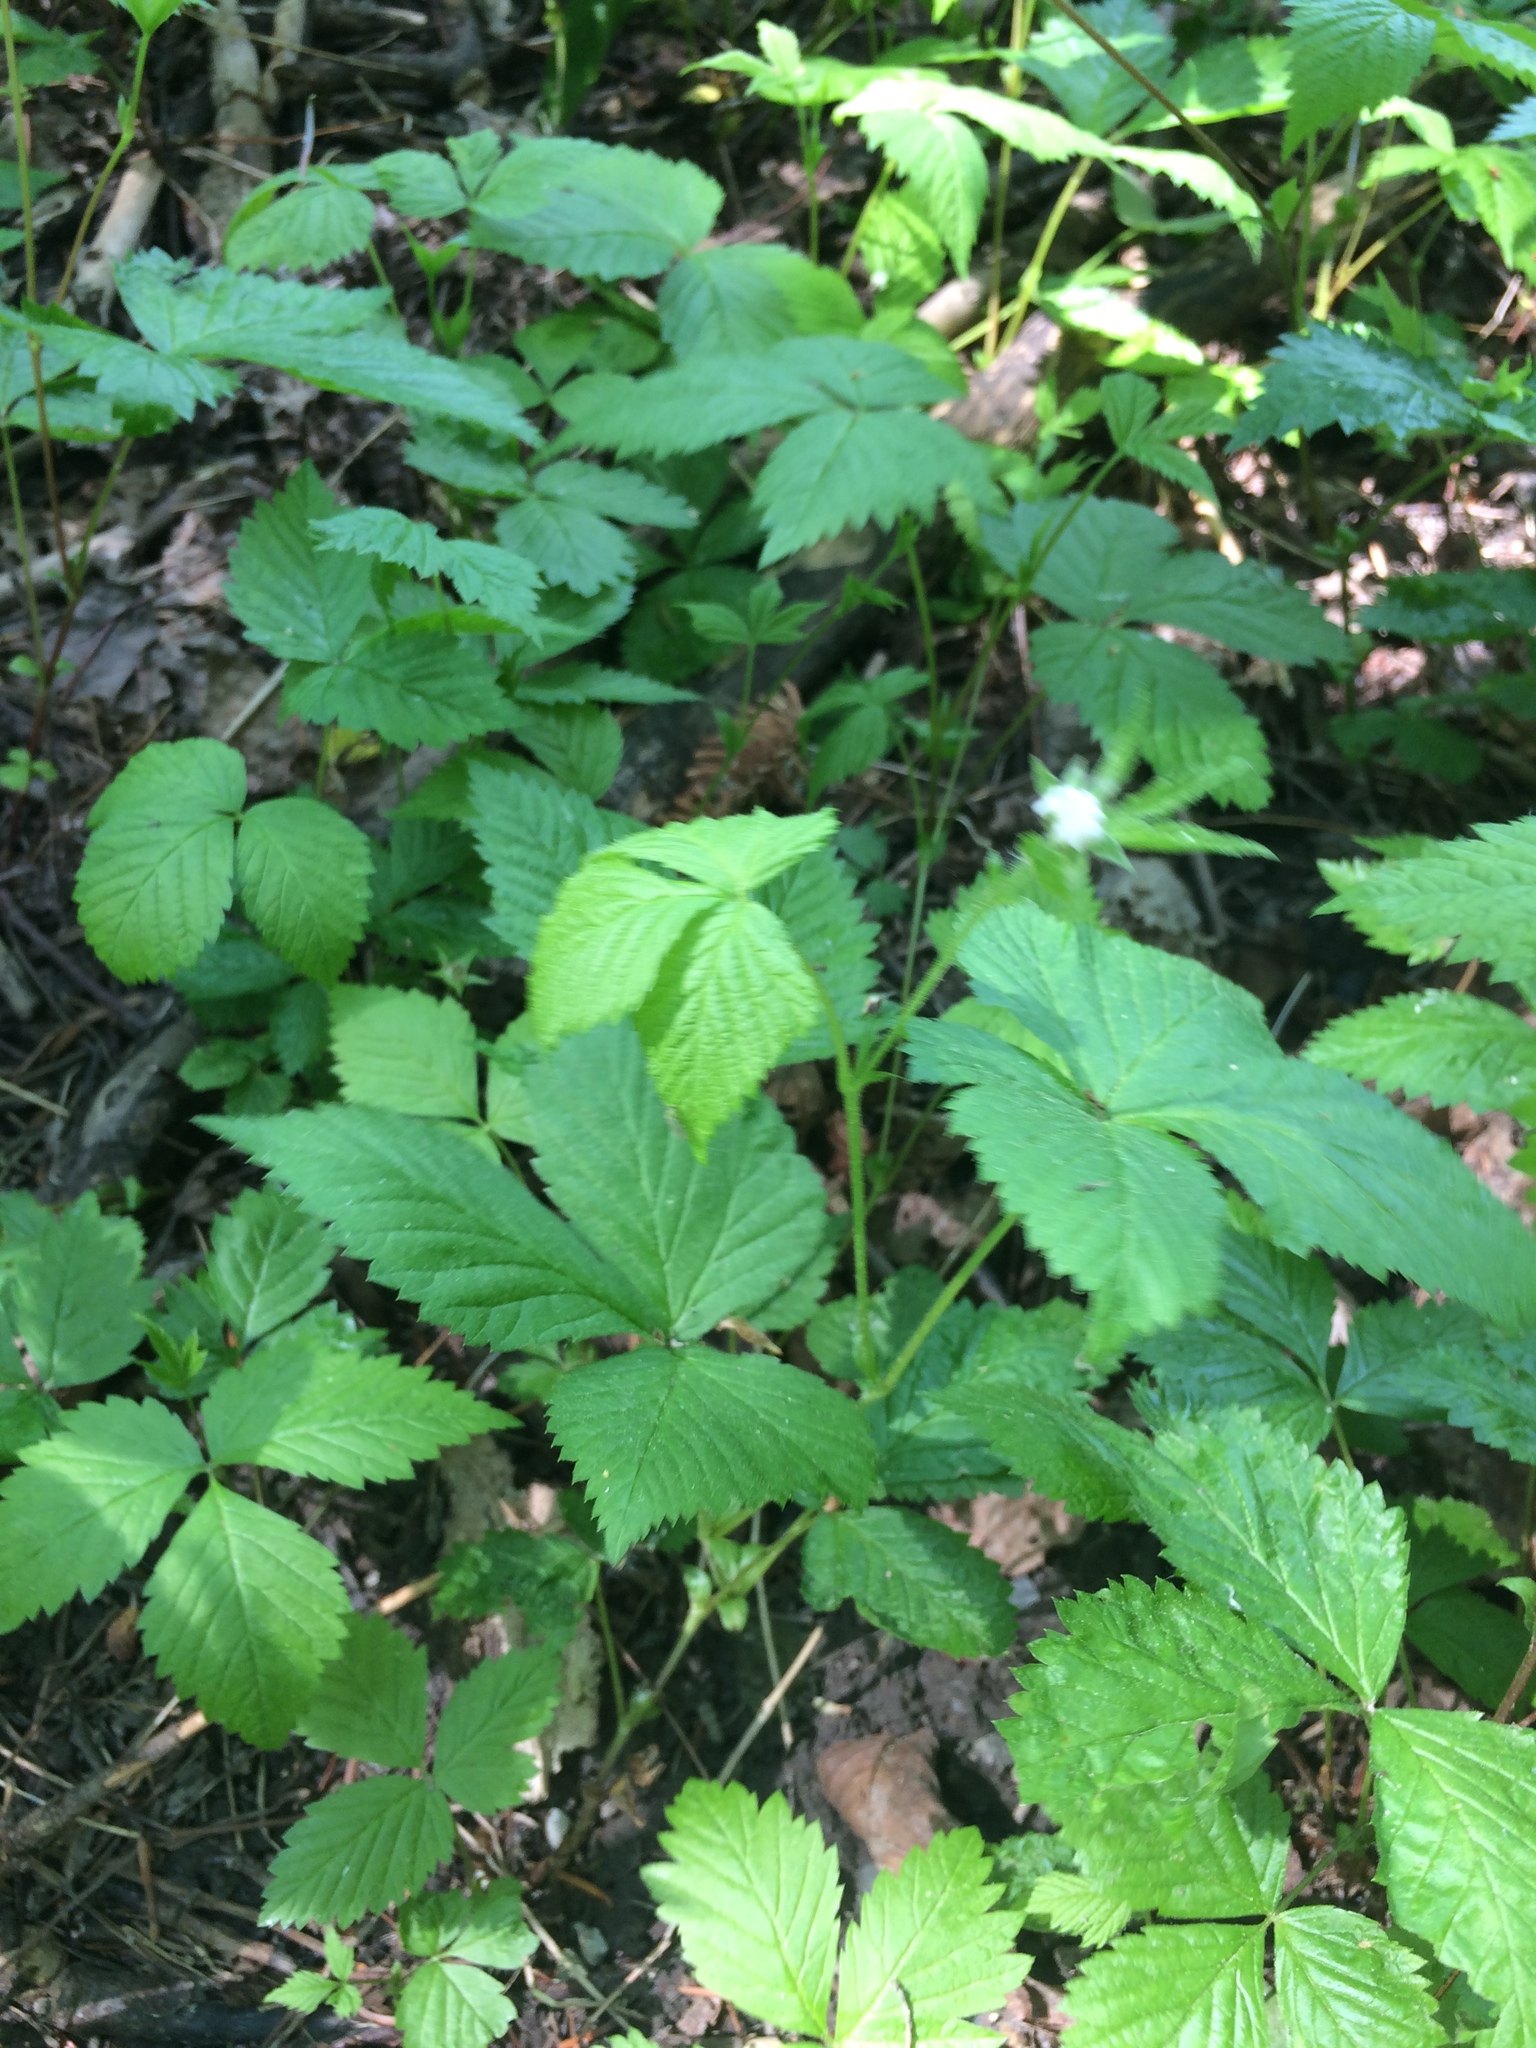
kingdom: Plantae
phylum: Tracheophyta
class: Magnoliopsida
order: Rosales
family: Rosaceae
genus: Rubus
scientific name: Rubus pubescens
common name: Dwarf raspberry
